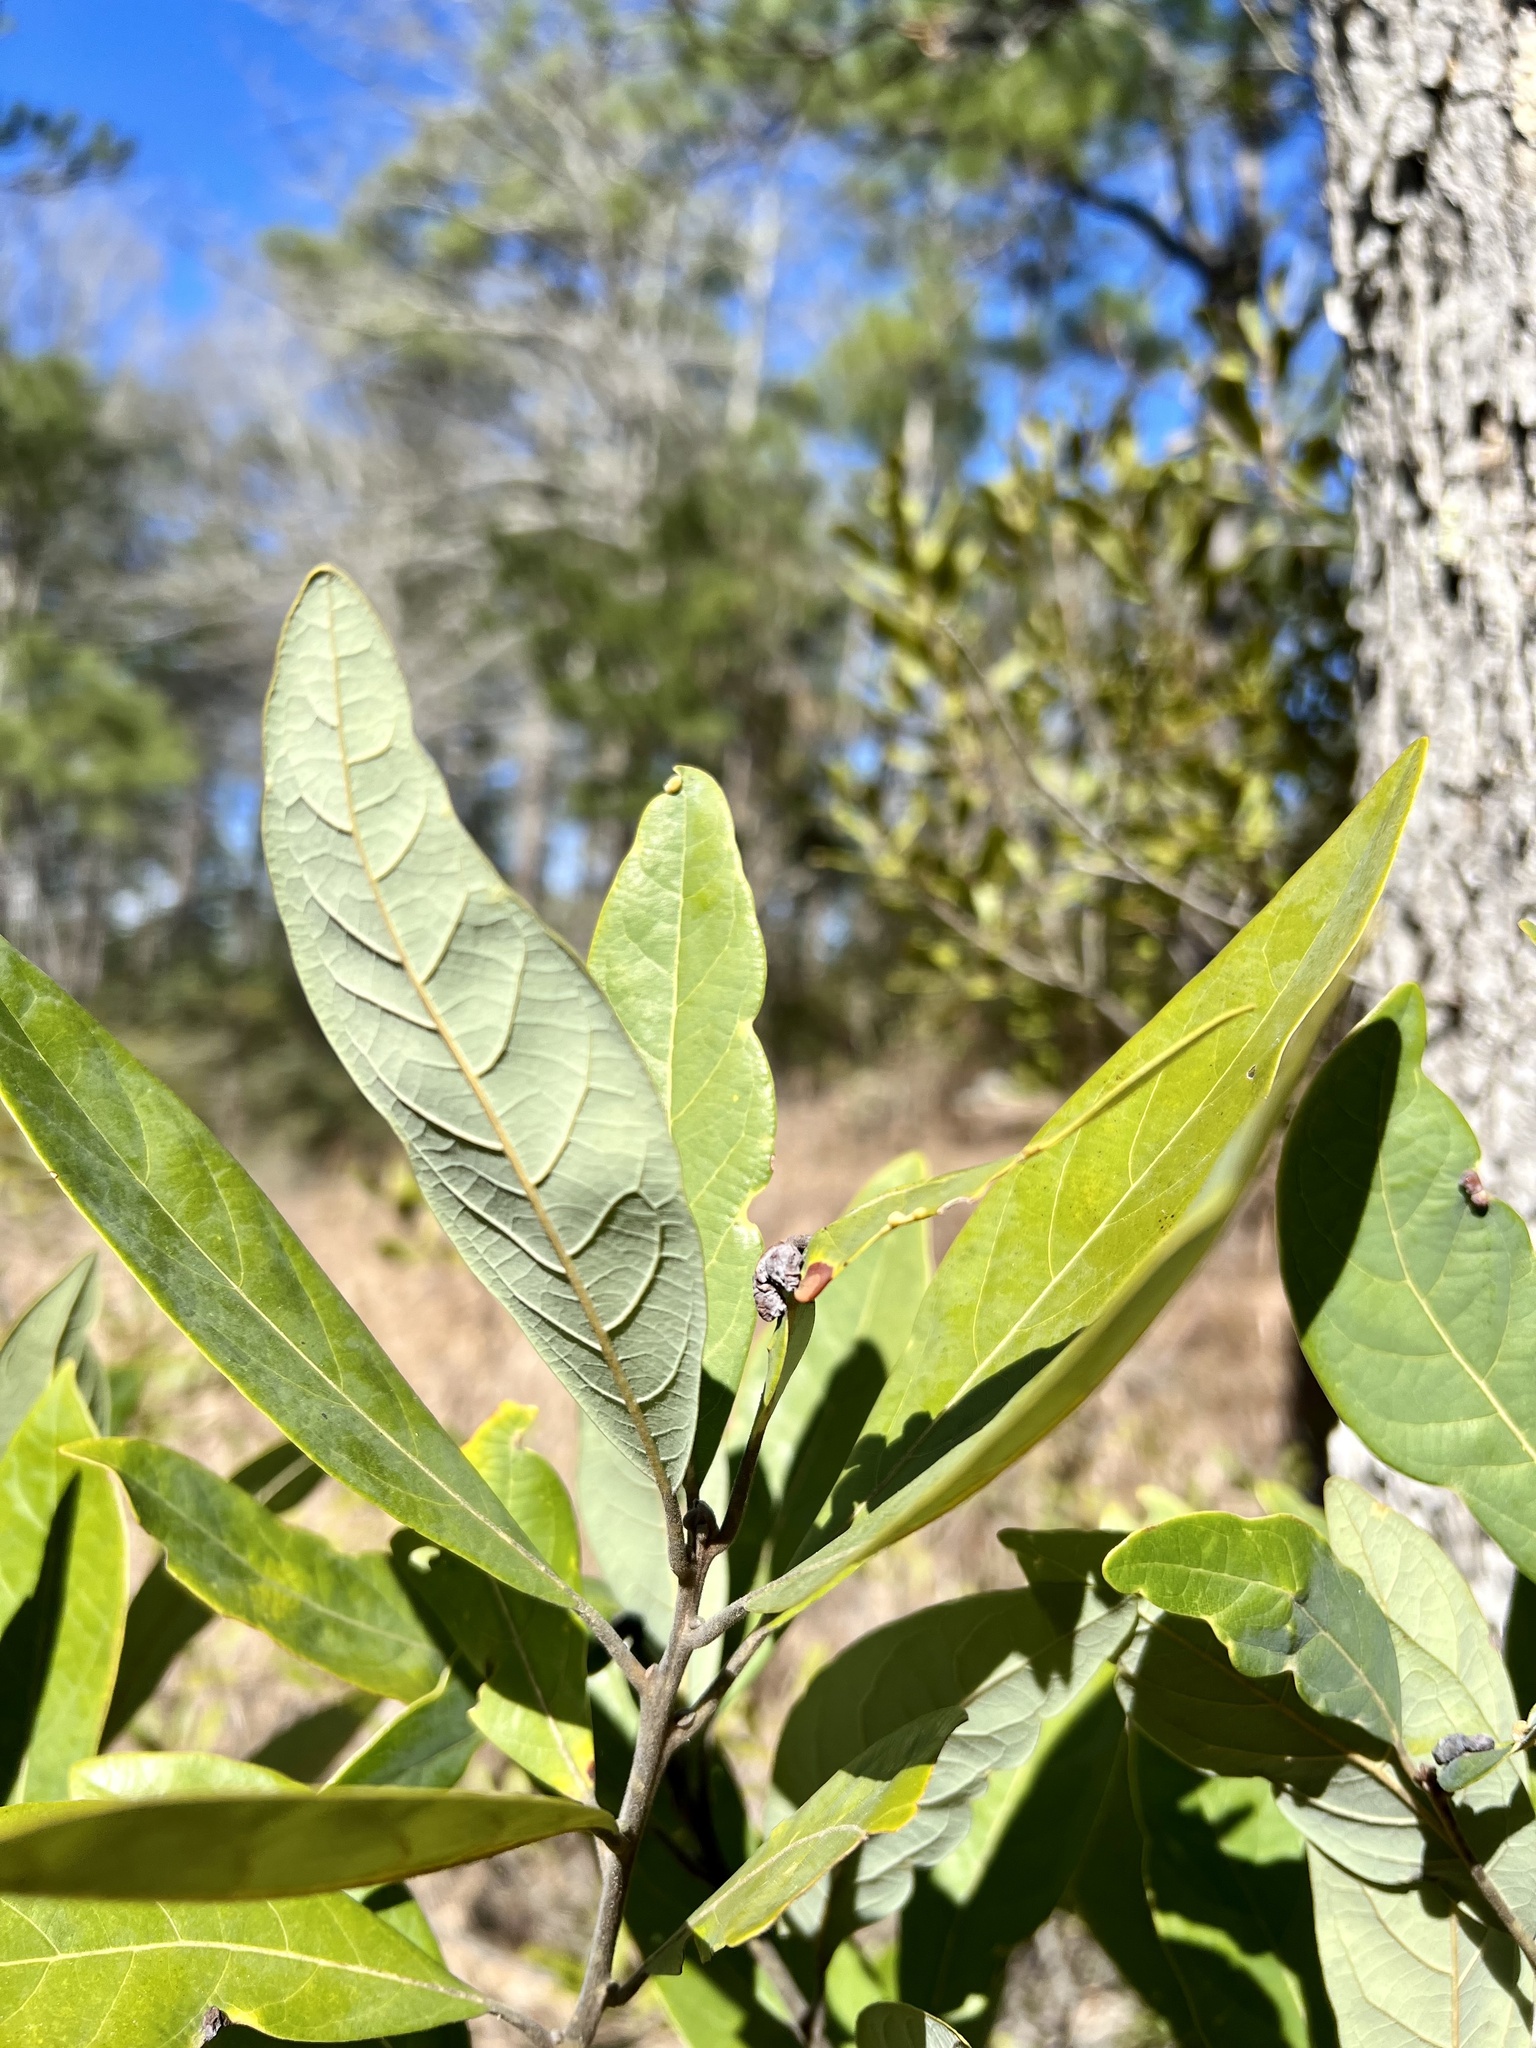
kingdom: Plantae
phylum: Tracheophyta
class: Magnoliopsida
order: Laurales
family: Lauraceae
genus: Persea
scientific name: Persea palustris
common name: Swampbay
